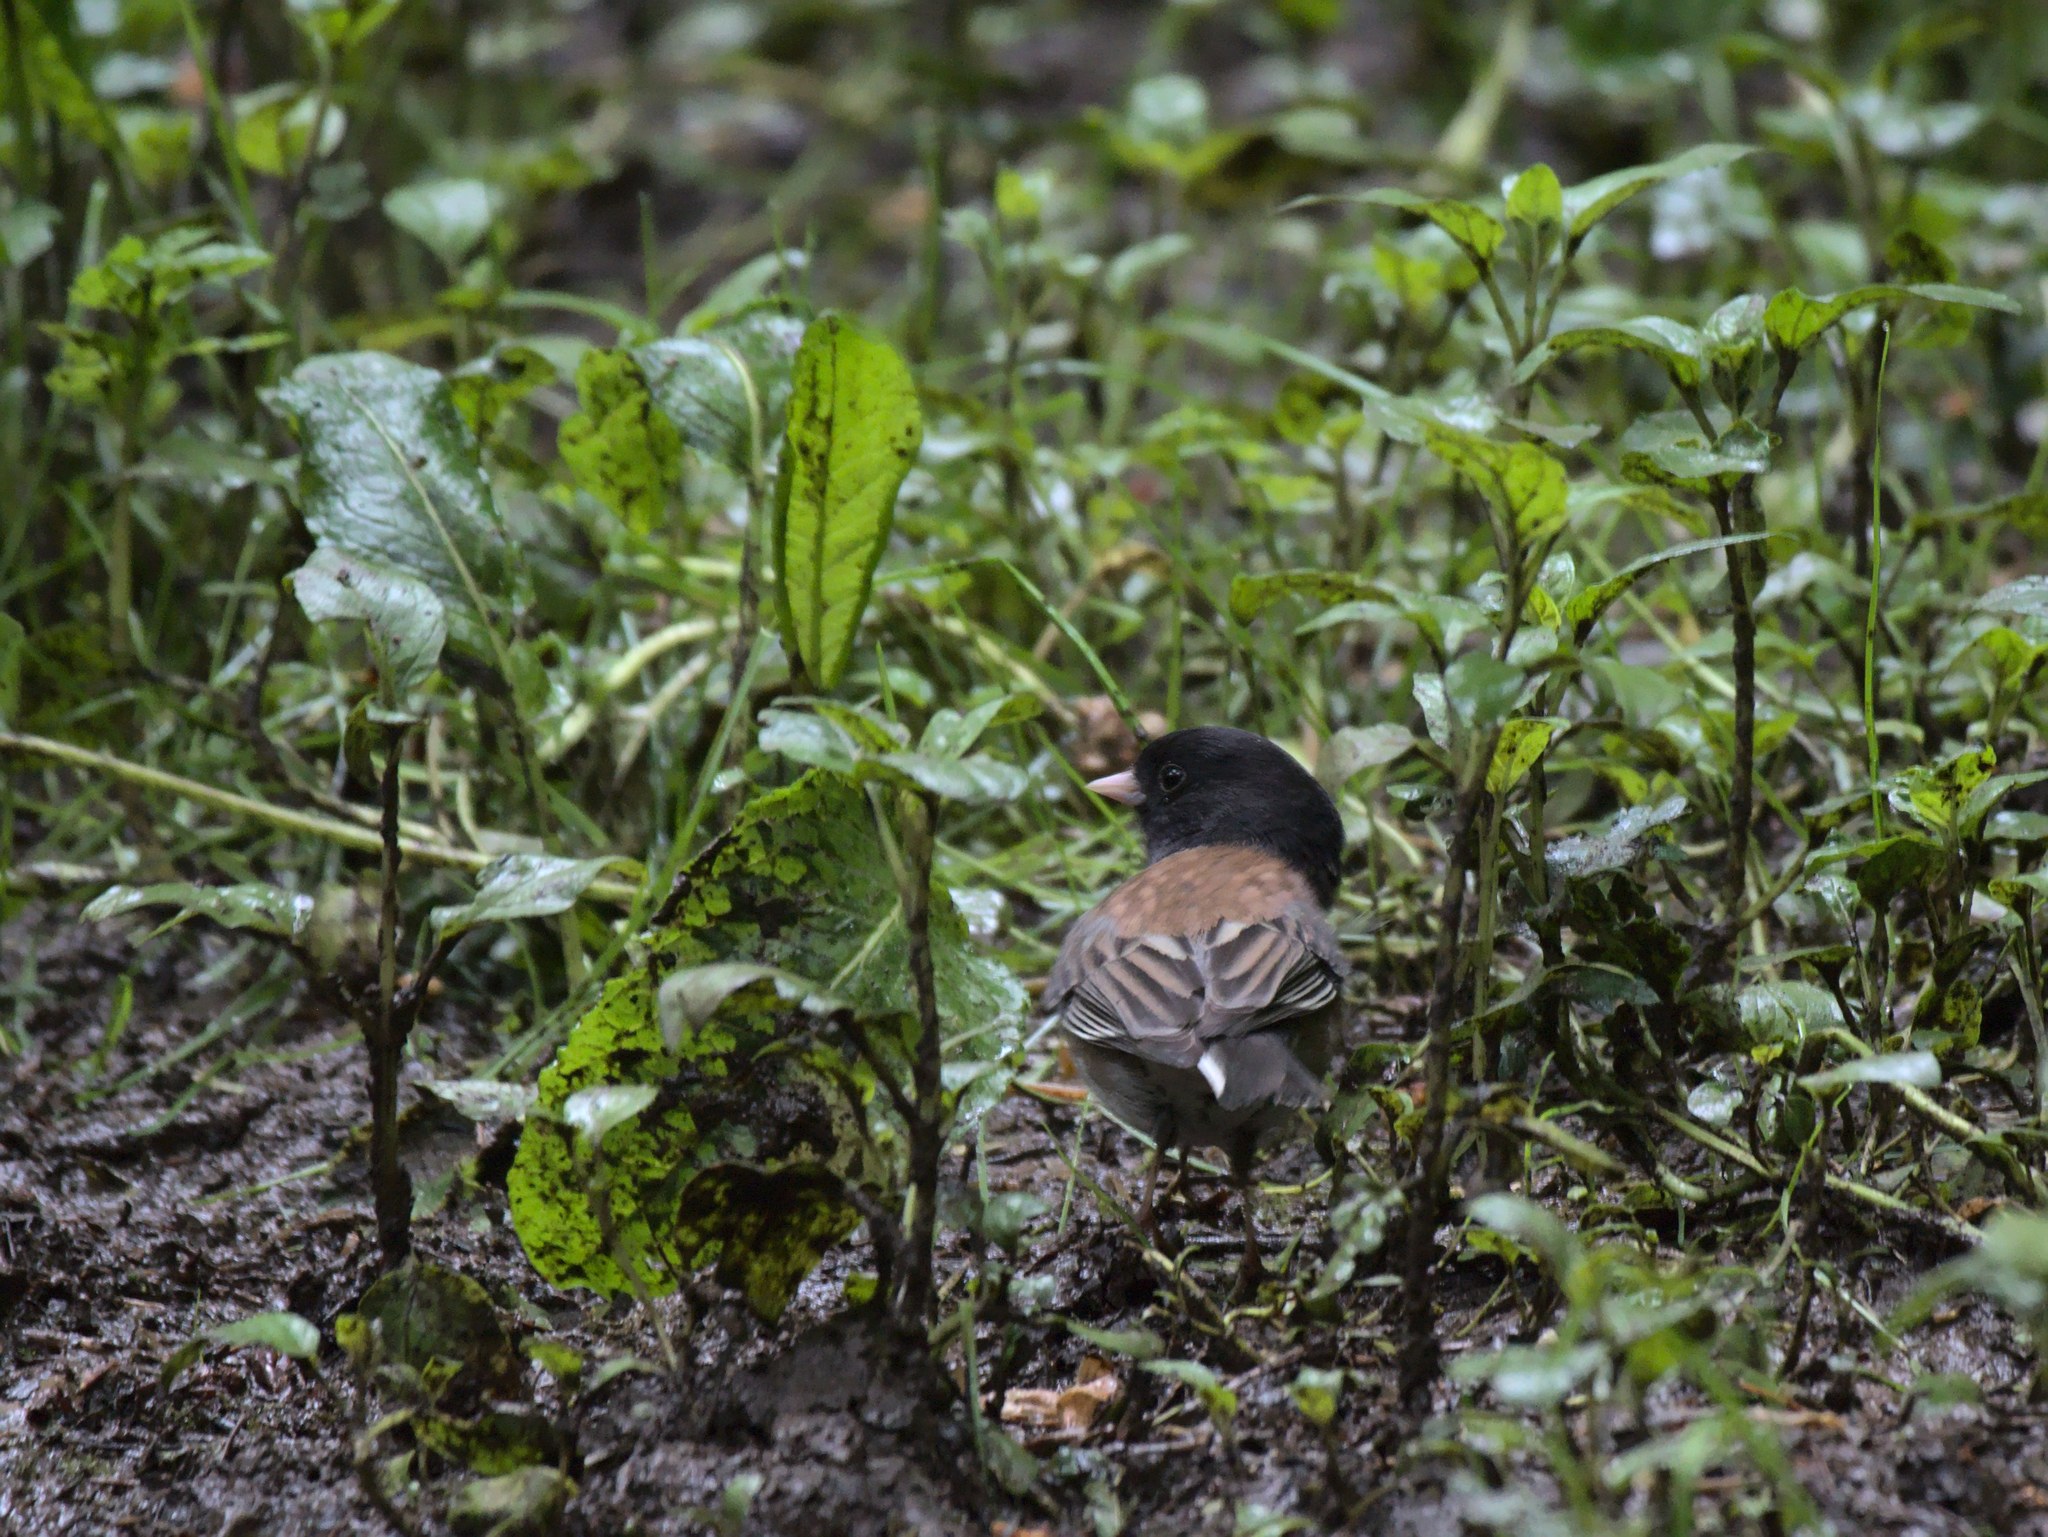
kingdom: Animalia
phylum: Chordata
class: Aves
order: Passeriformes
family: Passerellidae
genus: Junco
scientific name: Junco hyemalis
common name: Dark-eyed junco
